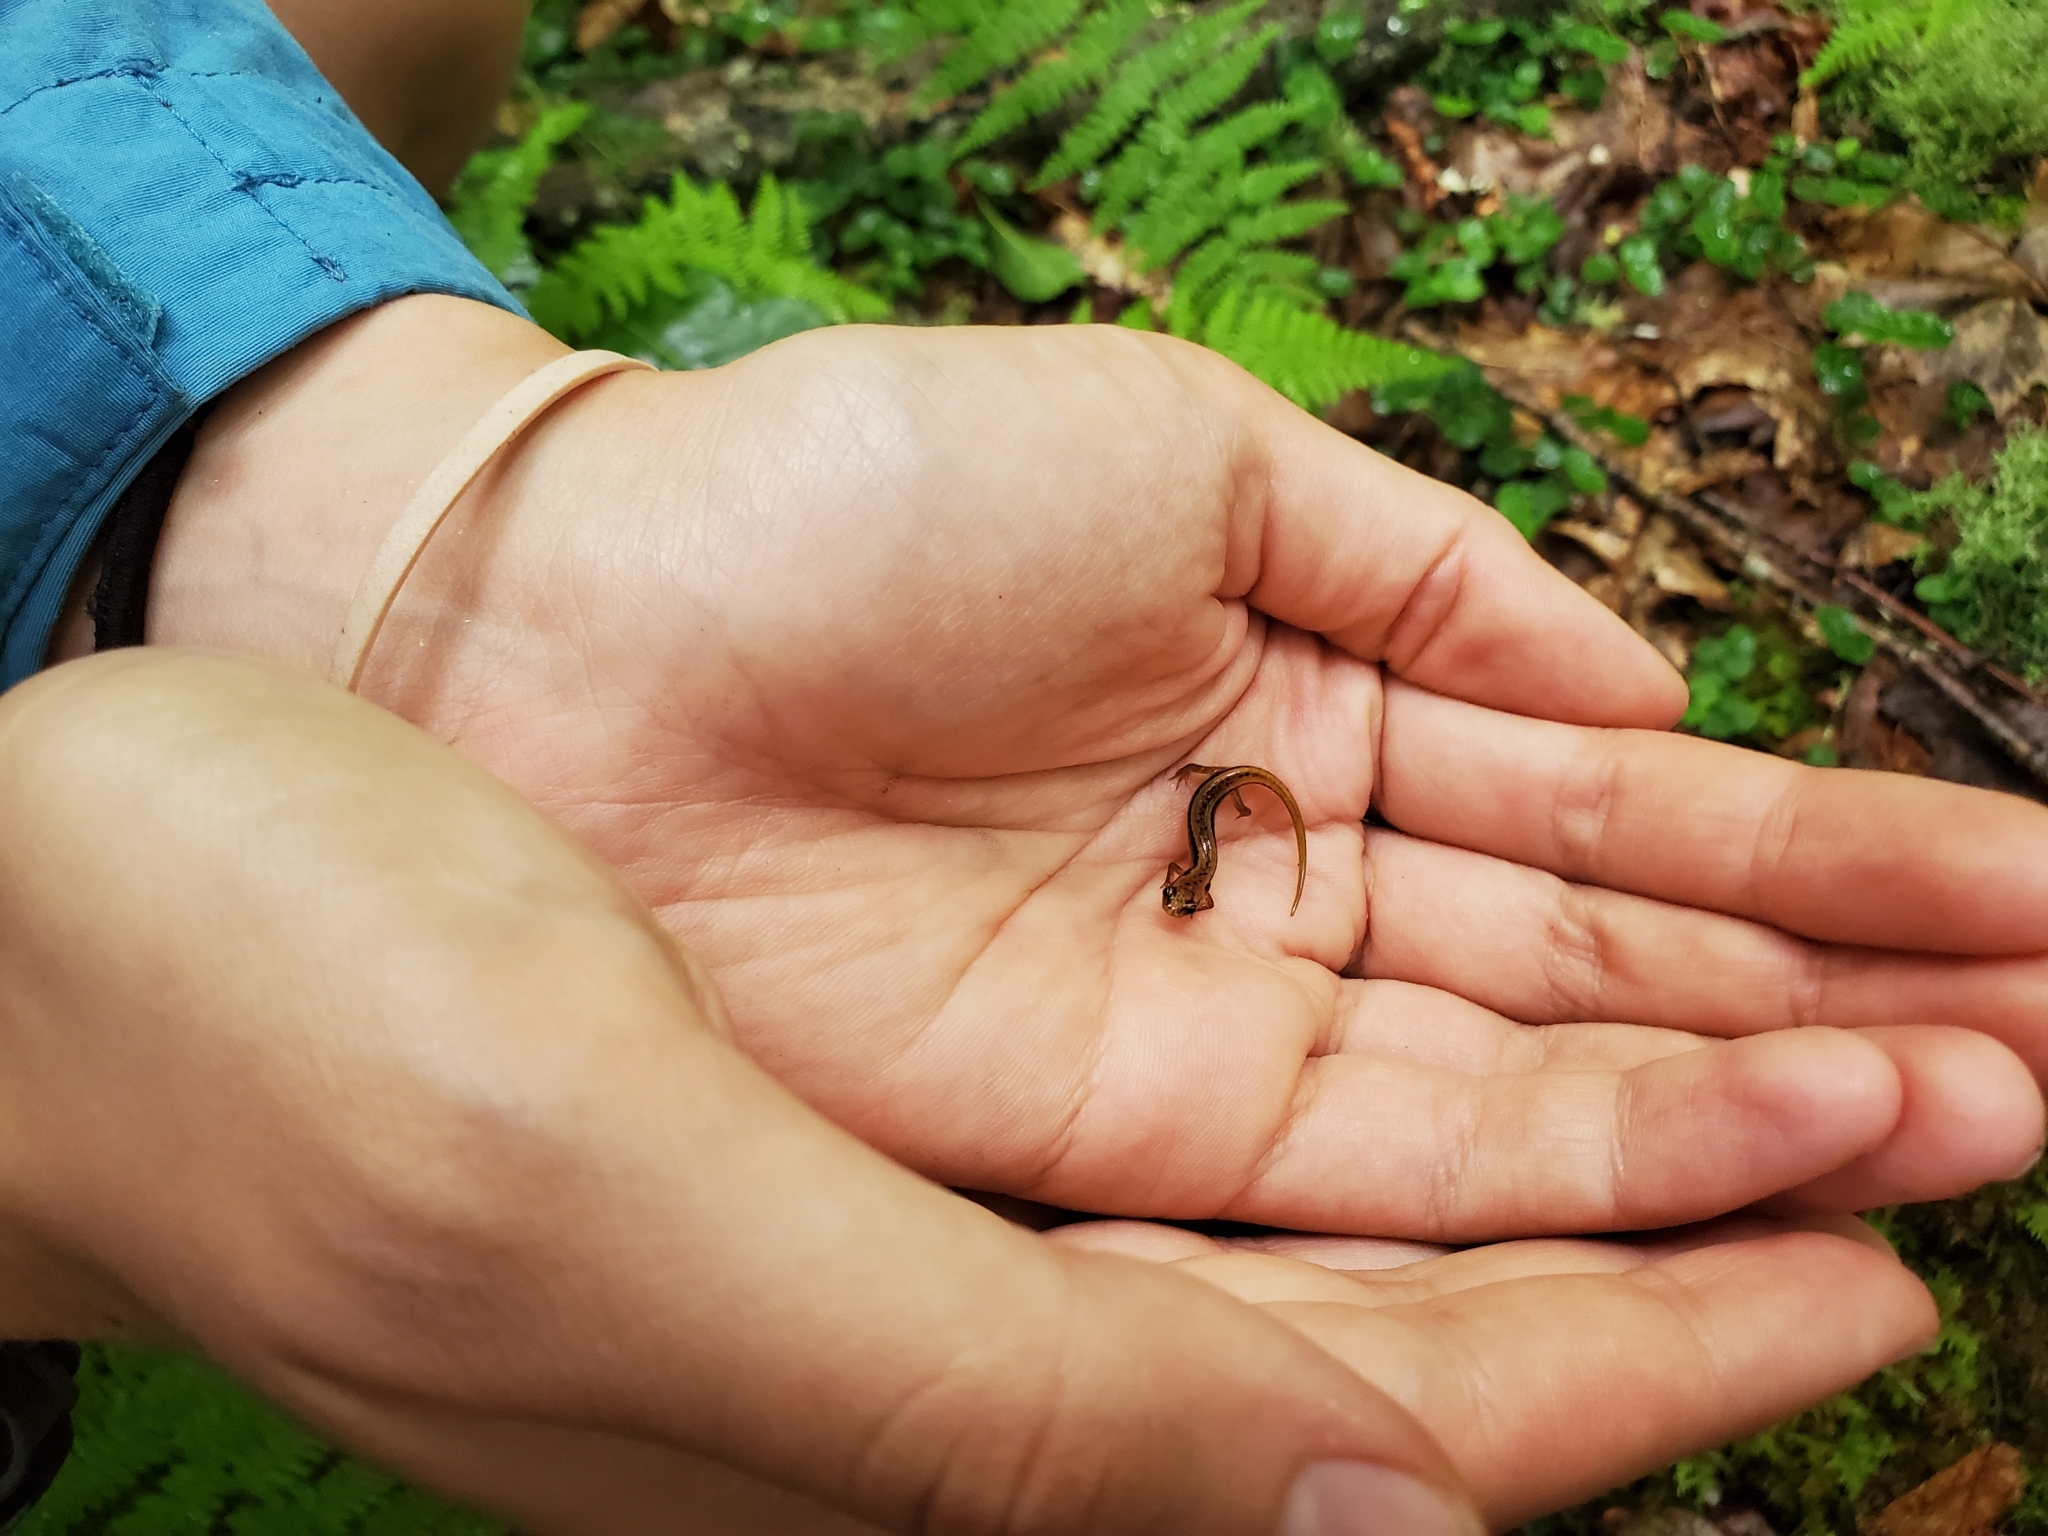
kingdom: Animalia
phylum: Chordata
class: Amphibia
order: Caudata
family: Plethodontidae
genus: Eurycea
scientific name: Eurycea wilderae
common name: Blue ridge two-lined salamander
